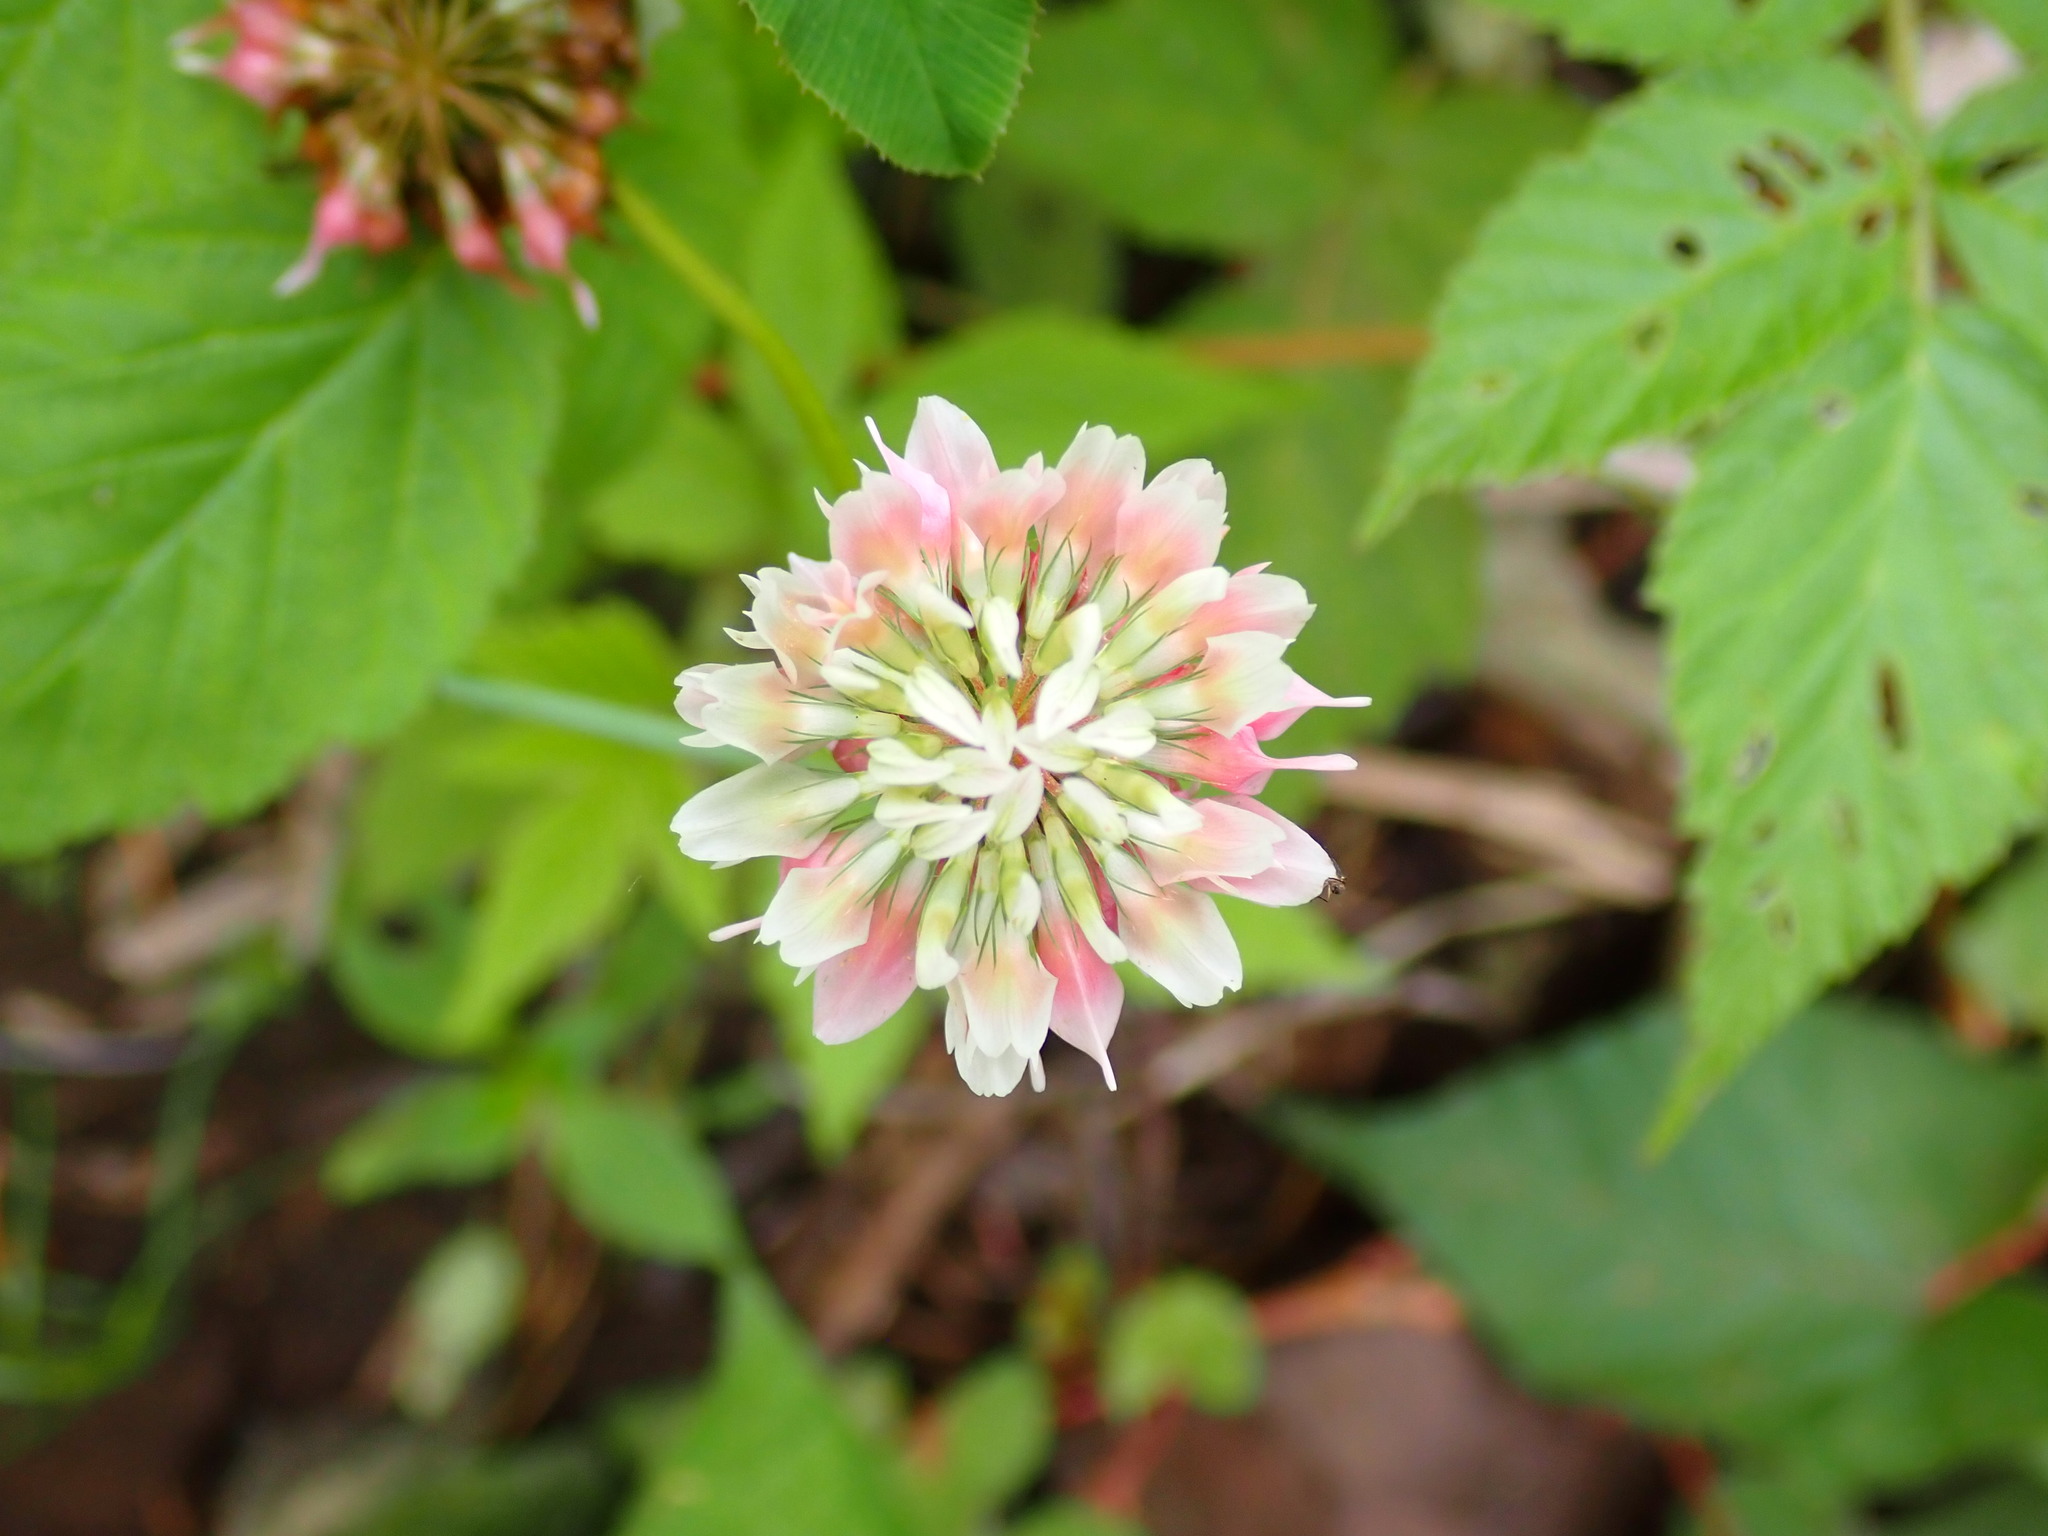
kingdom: Plantae
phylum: Tracheophyta
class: Magnoliopsida
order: Fabales
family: Fabaceae
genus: Trifolium
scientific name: Trifolium hybridum
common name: Alsike clover
